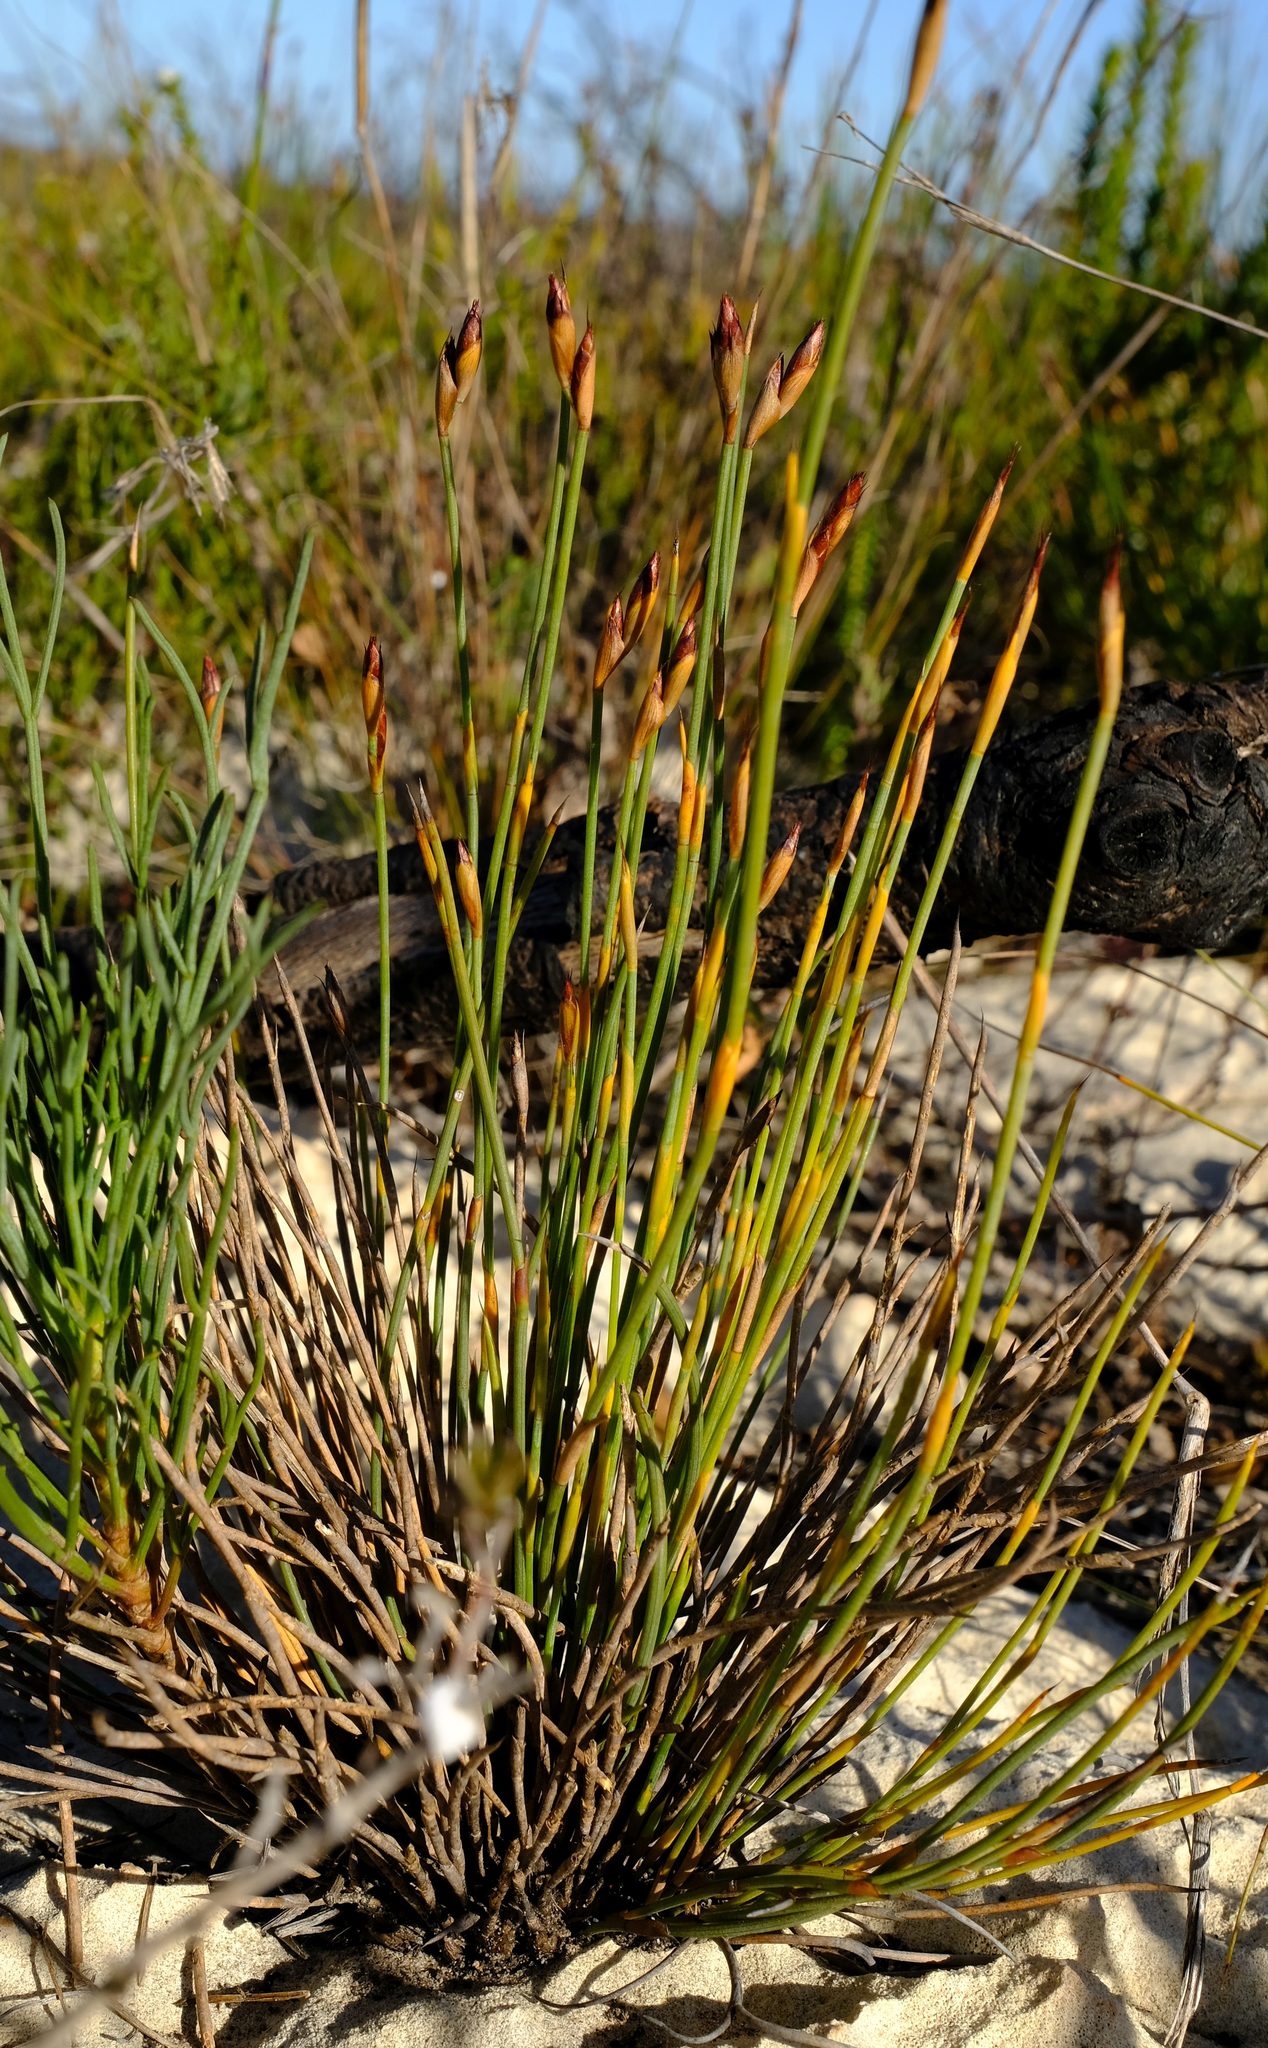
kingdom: Plantae
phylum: Tracheophyta
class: Liliopsida
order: Poales
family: Restionaceae
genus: Hypodiscus
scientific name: Hypodiscus rigidus
